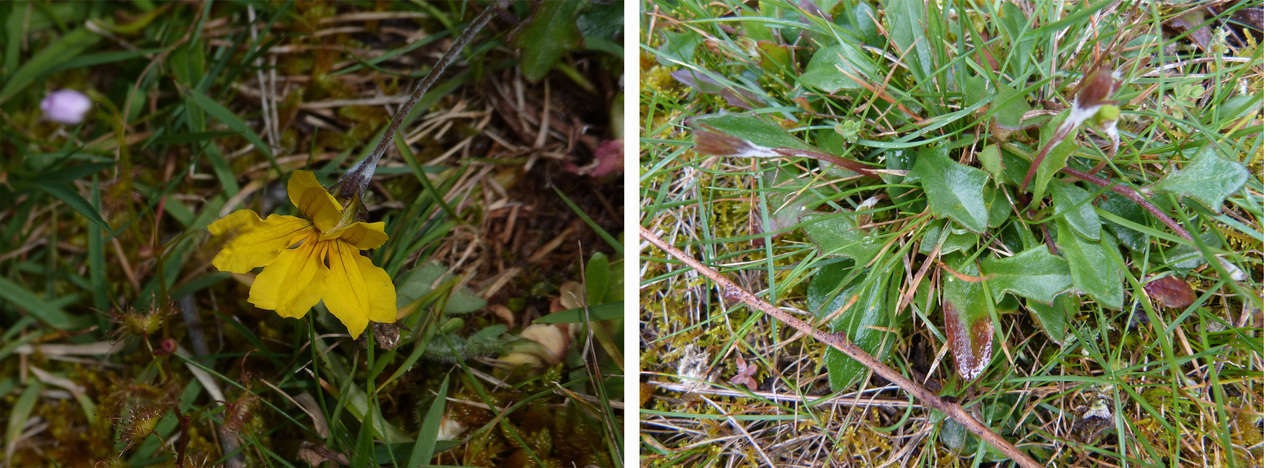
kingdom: Plantae
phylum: Tracheophyta
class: Magnoliopsida
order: Asterales
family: Goodeniaceae
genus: Goodenia
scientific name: Goodenia lanata
